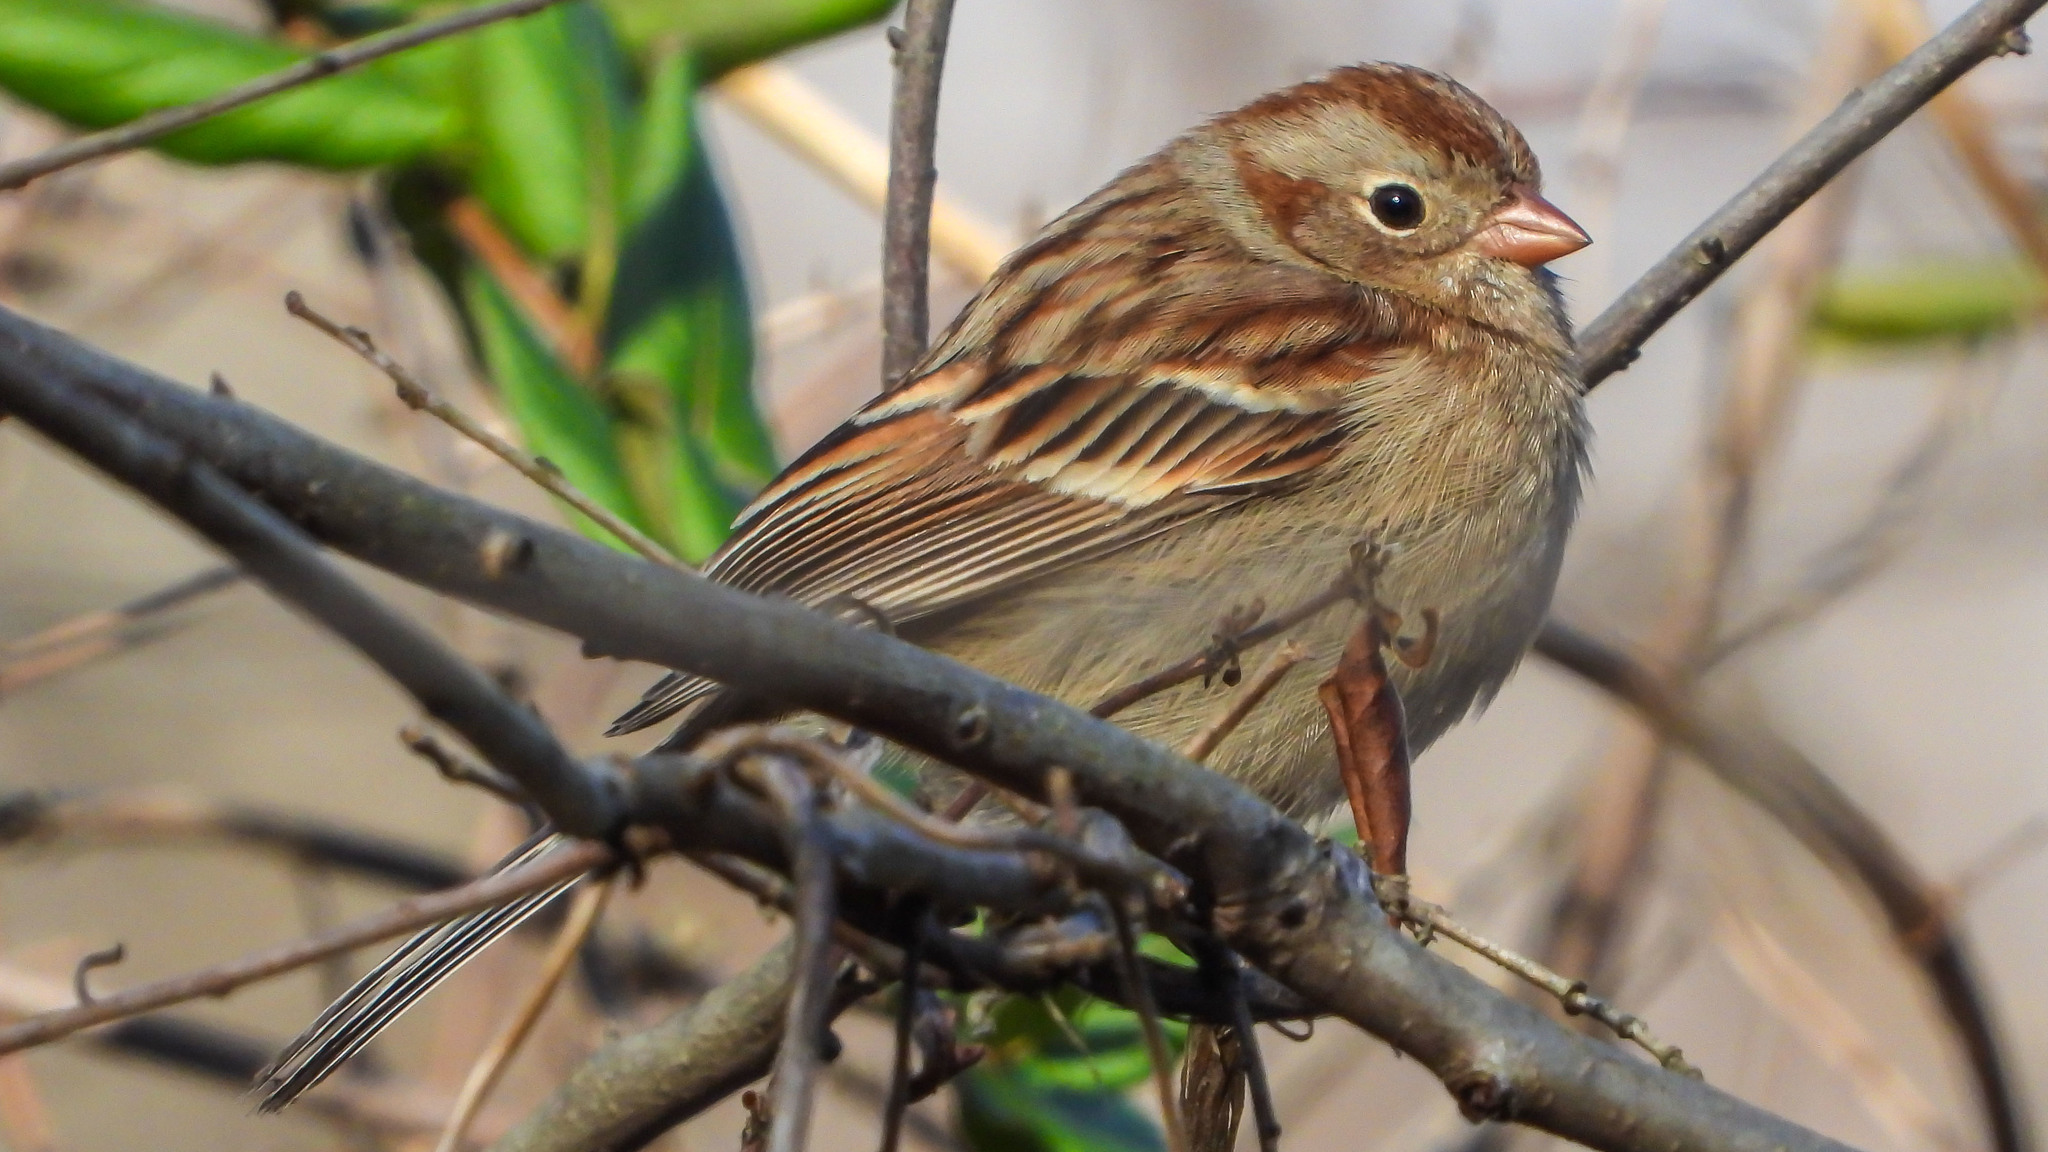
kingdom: Animalia
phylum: Chordata
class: Aves
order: Passeriformes
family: Passerellidae
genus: Spizella
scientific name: Spizella pusilla
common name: Field sparrow
